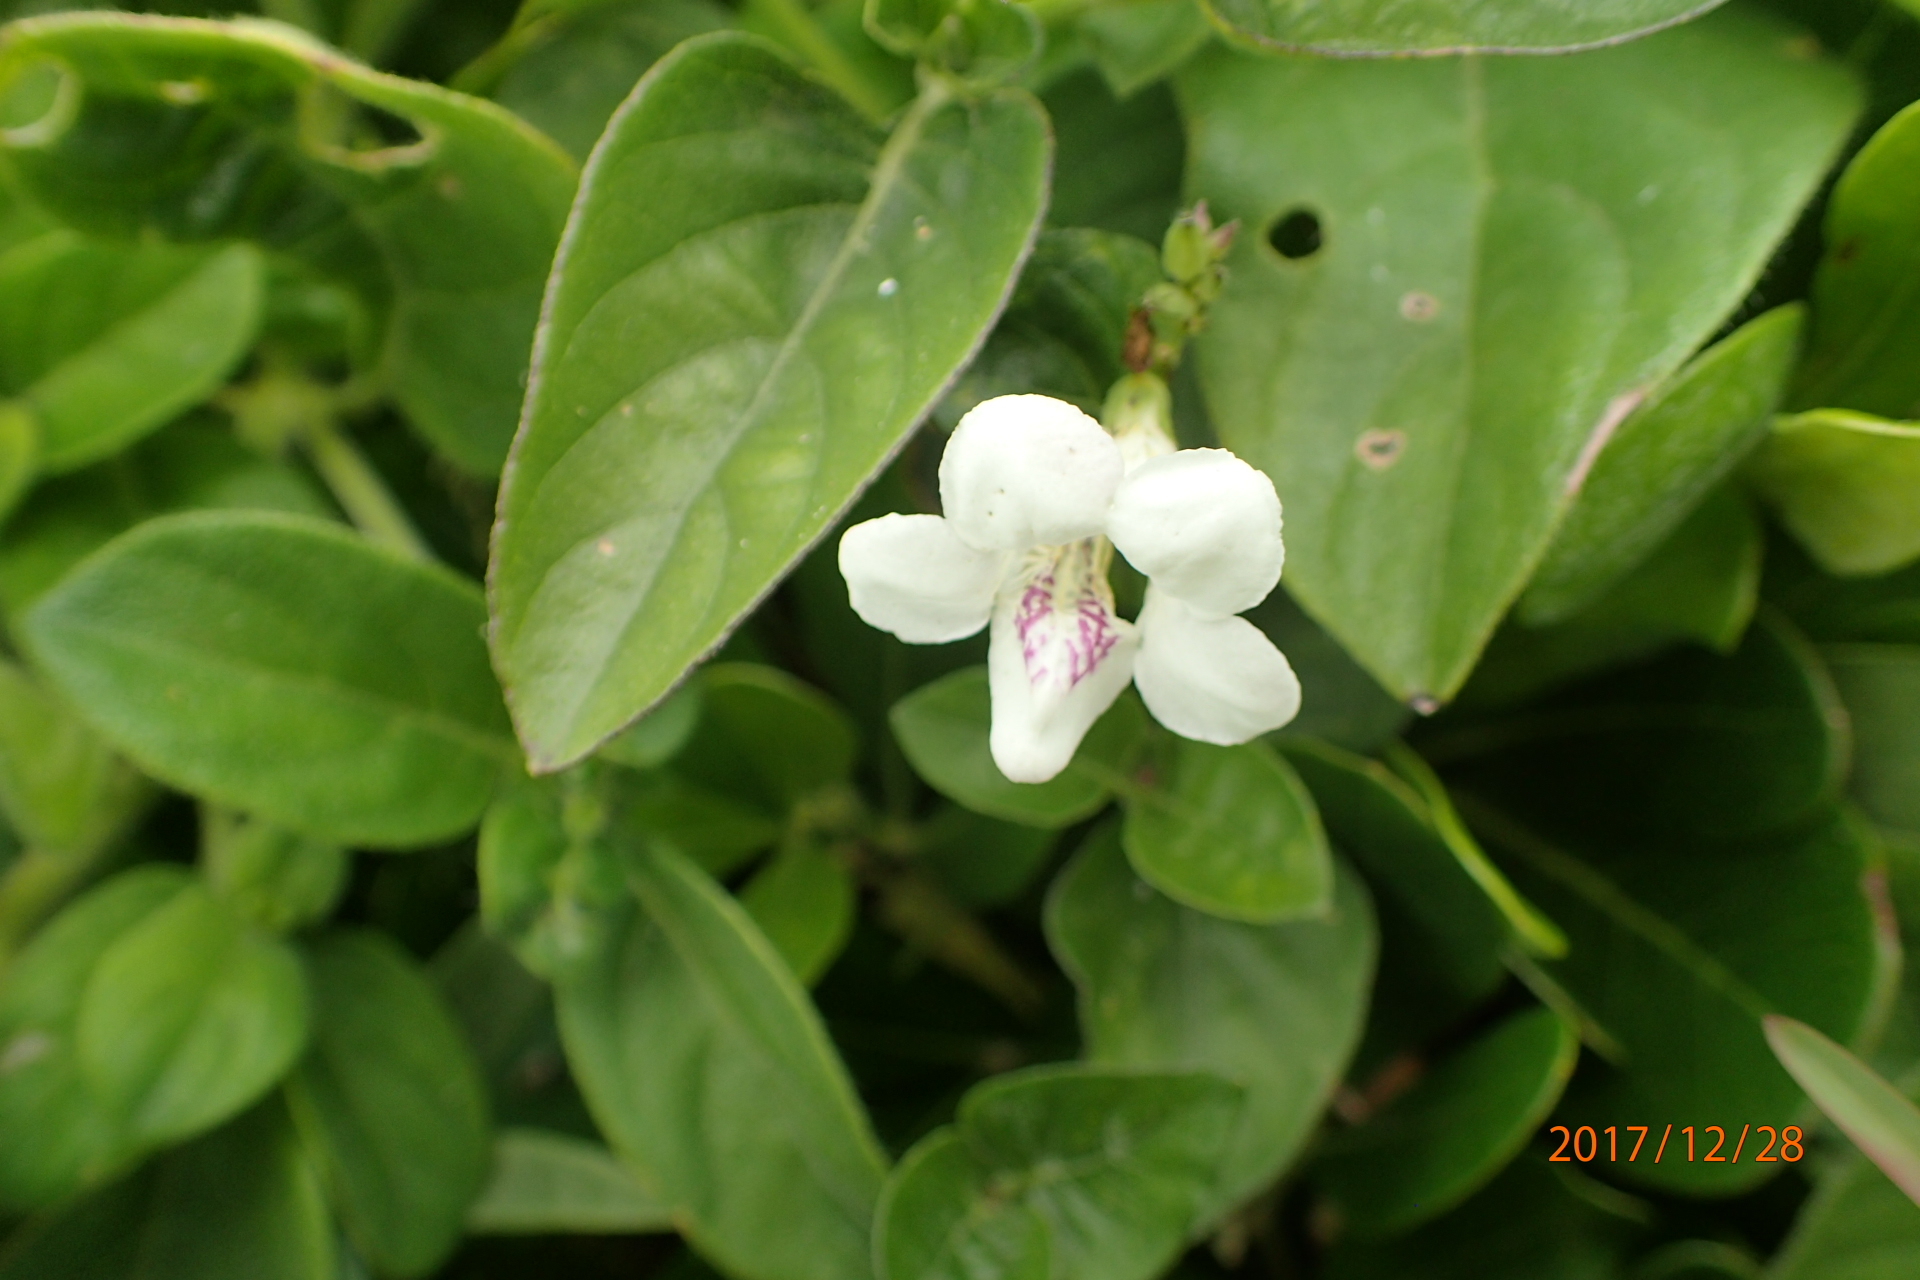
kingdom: Plantae
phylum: Tracheophyta
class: Magnoliopsida
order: Lamiales
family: Acanthaceae
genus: Asystasia
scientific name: Asystasia intrusa
